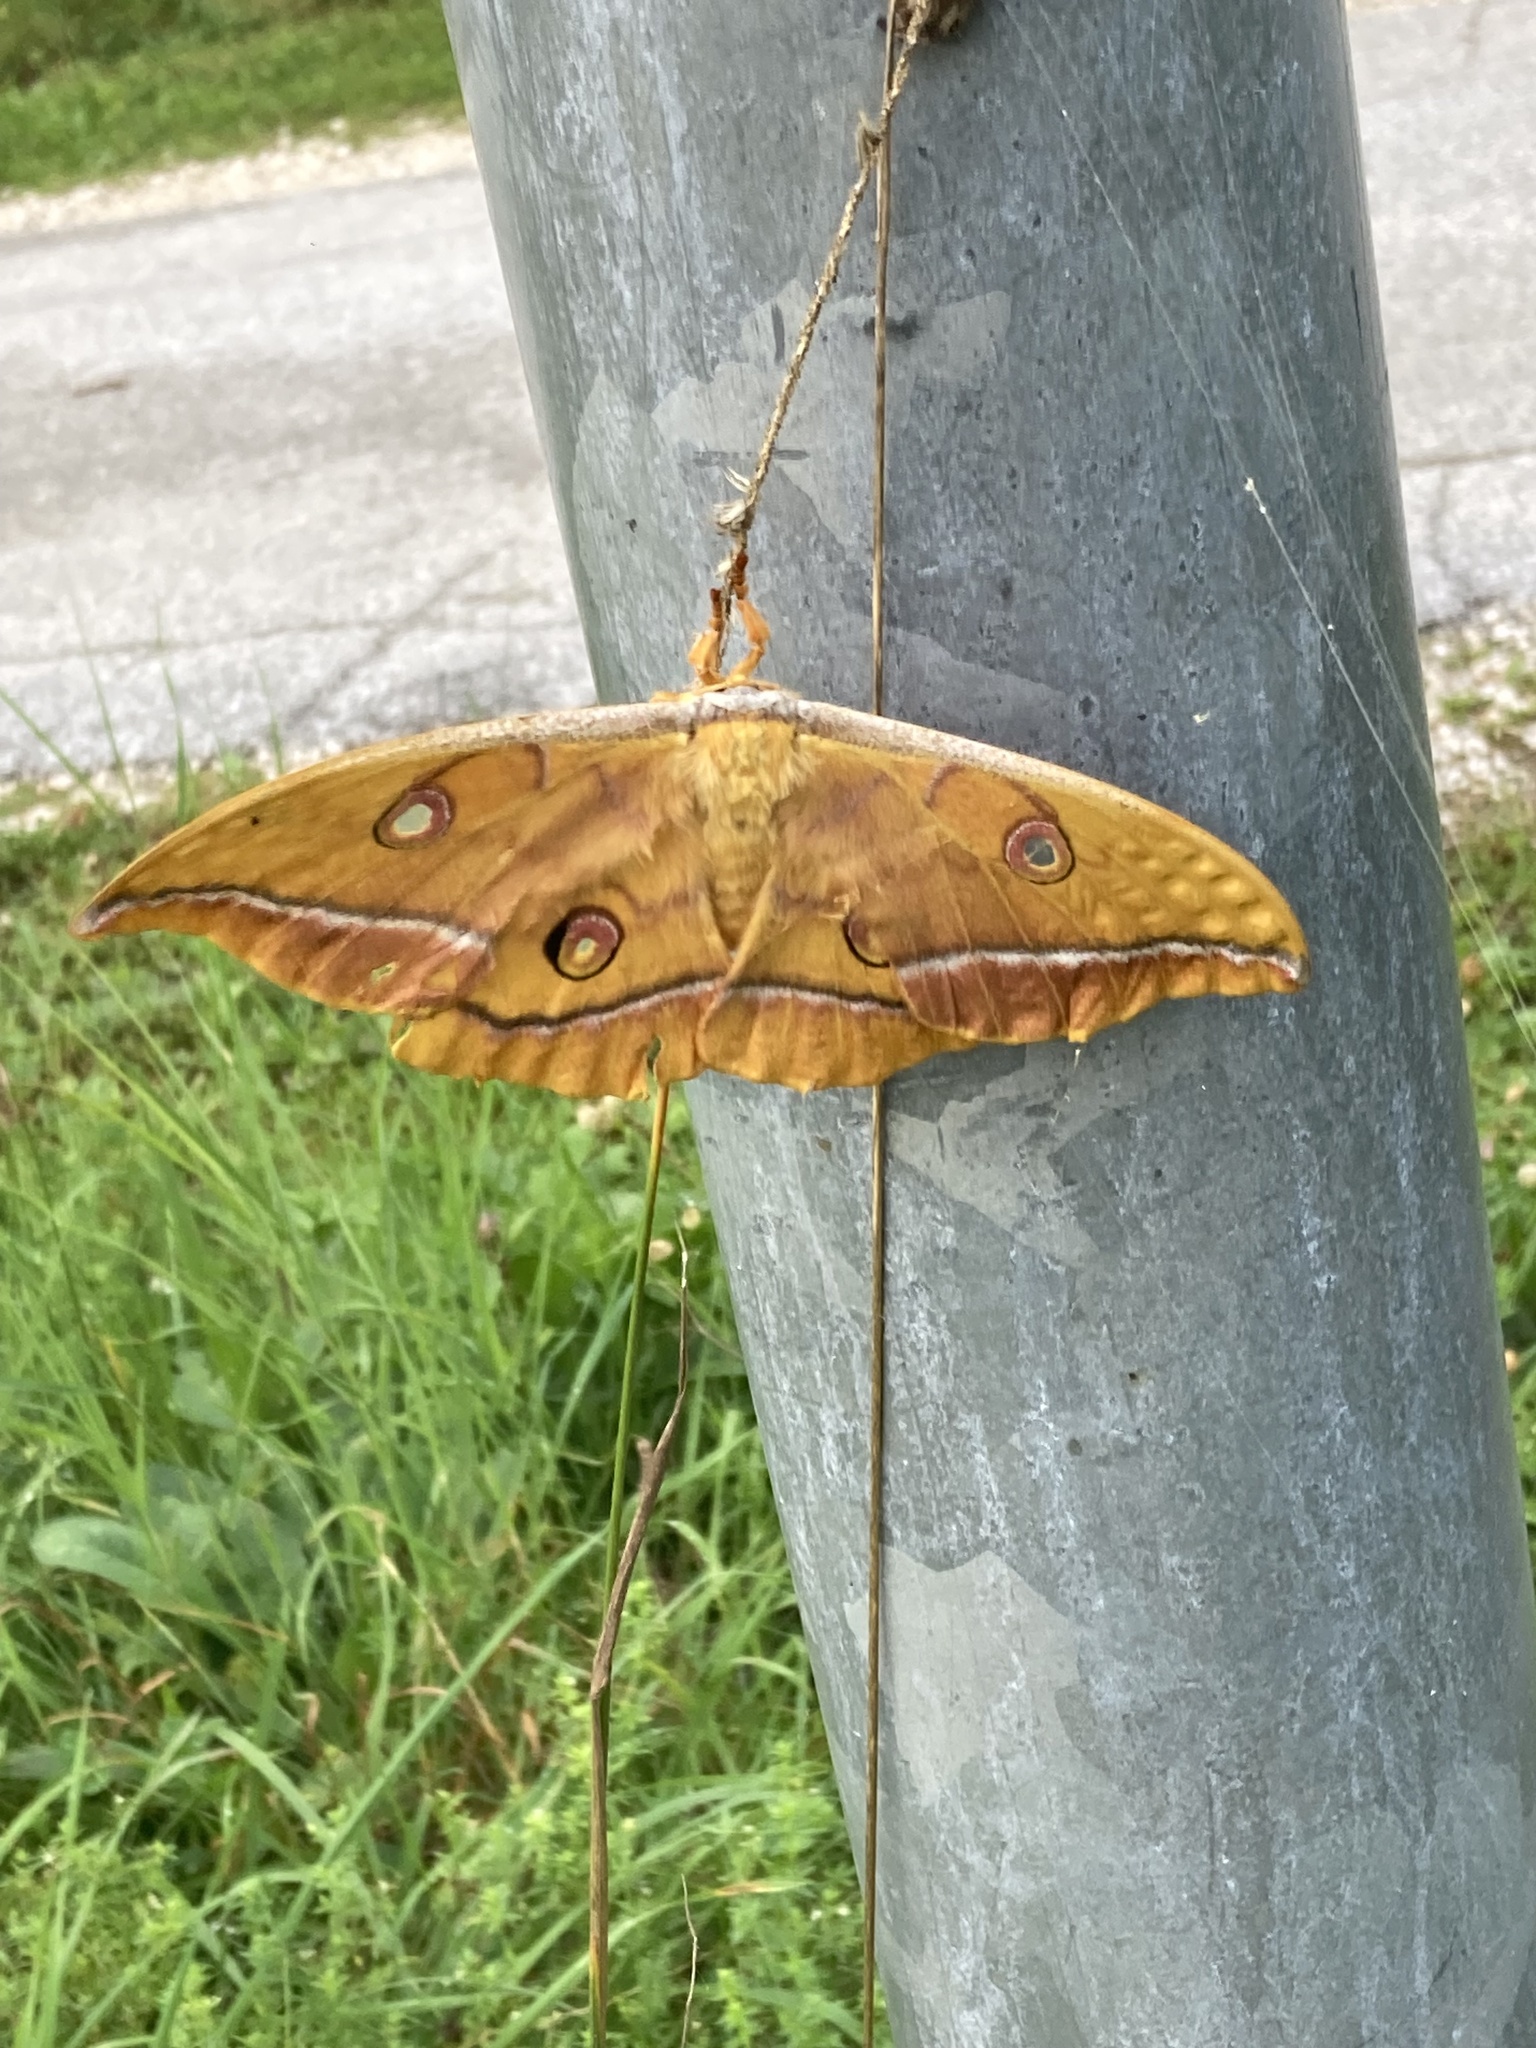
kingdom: Animalia
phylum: Arthropoda
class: Insecta
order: Lepidoptera
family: Saturniidae
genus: Antheraea
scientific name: Antheraea yamamai
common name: Japanese oak silk moth
